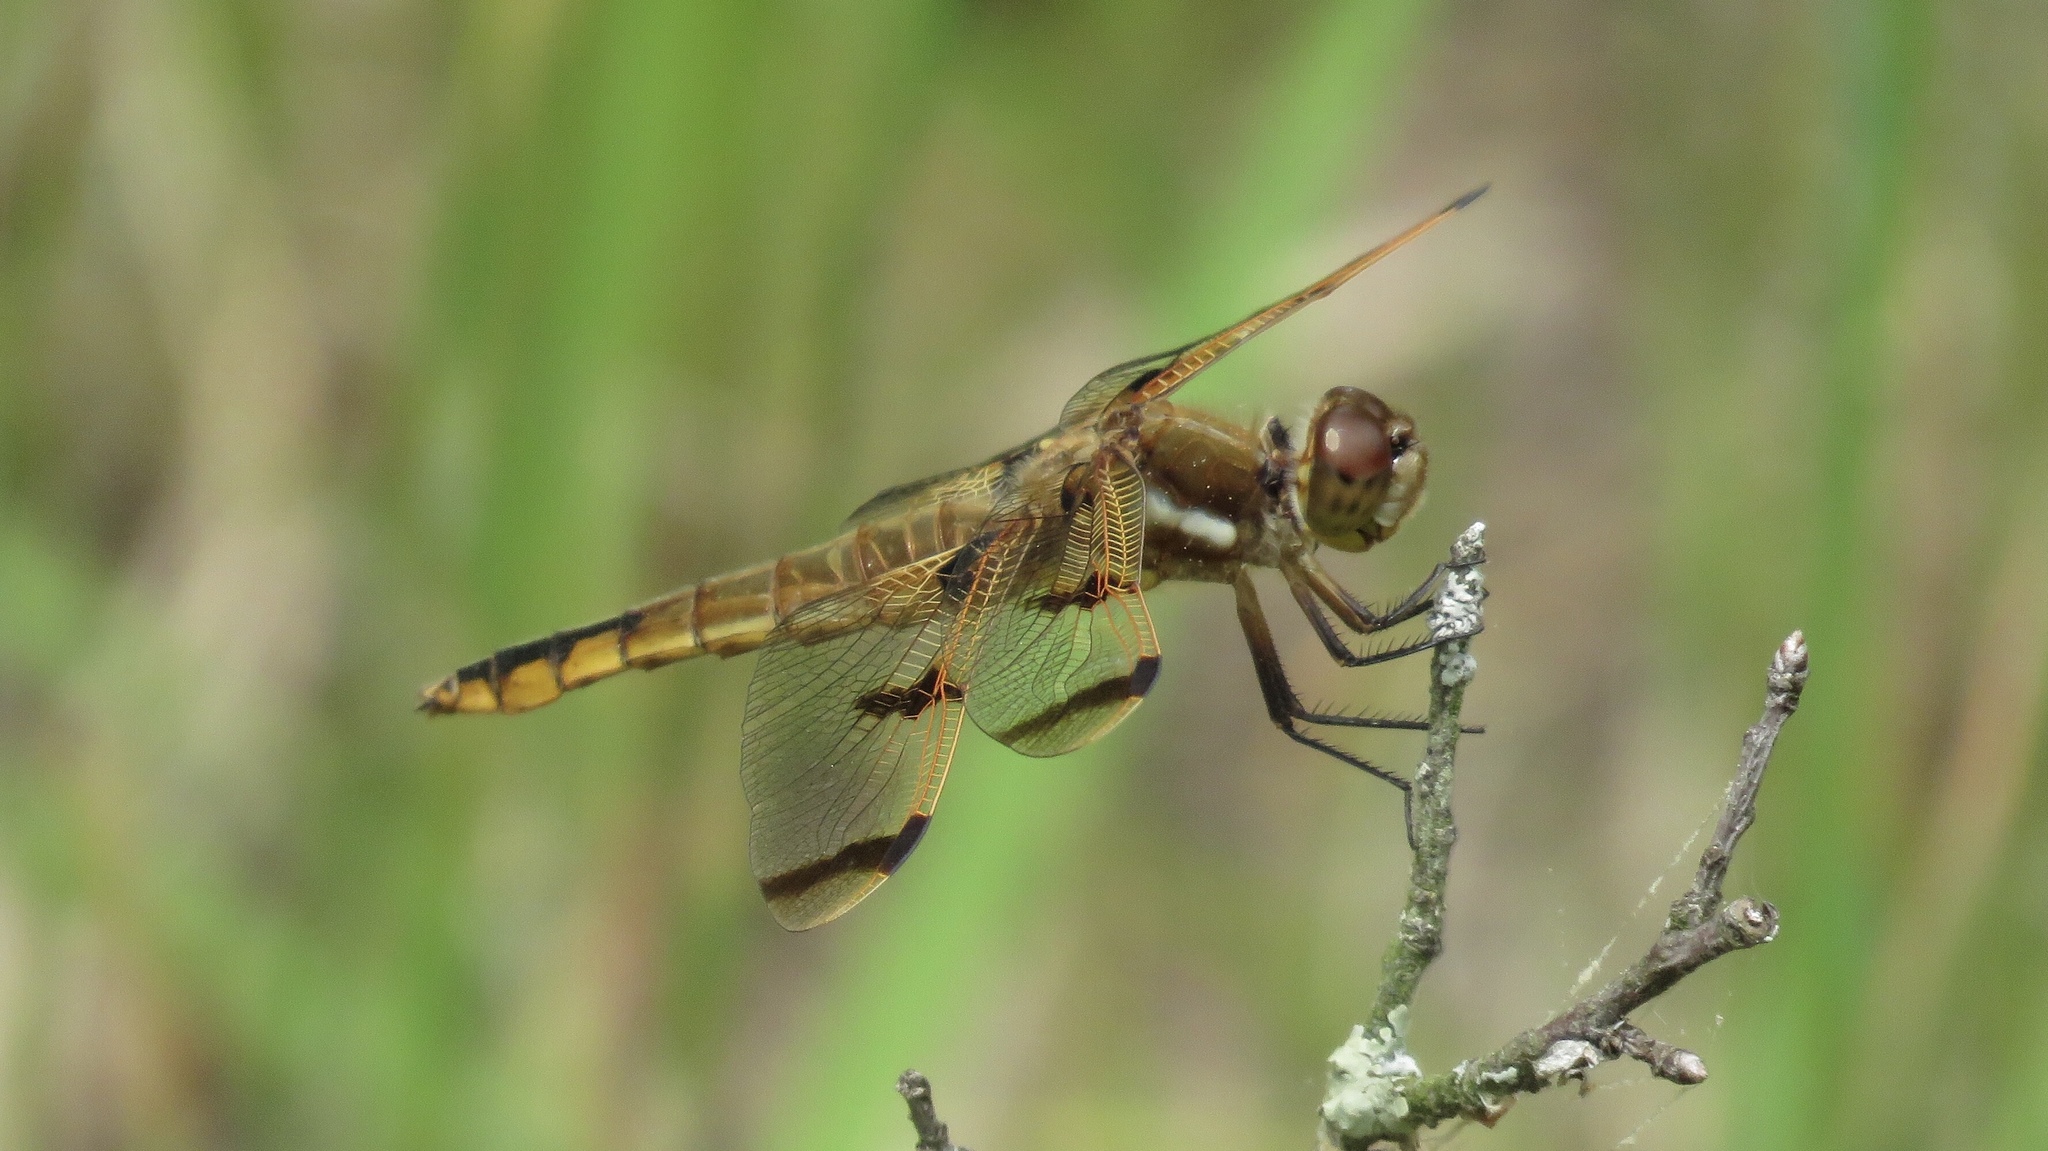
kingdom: Animalia
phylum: Arthropoda
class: Insecta
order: Odonata
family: Libellulidae
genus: Libellula
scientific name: Libellula semifasciata
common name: Painted skimmer
